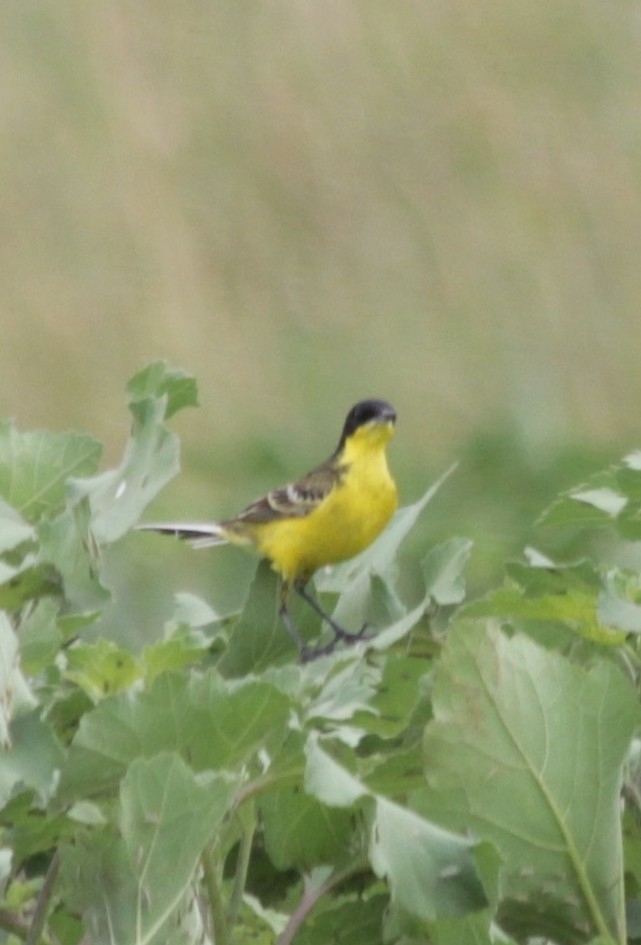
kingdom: Animalia
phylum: Chordata
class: Aves
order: Passeriformes
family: Motacillidae
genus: Motacilla
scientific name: Motacilla flava
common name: Western yellow wagtail
